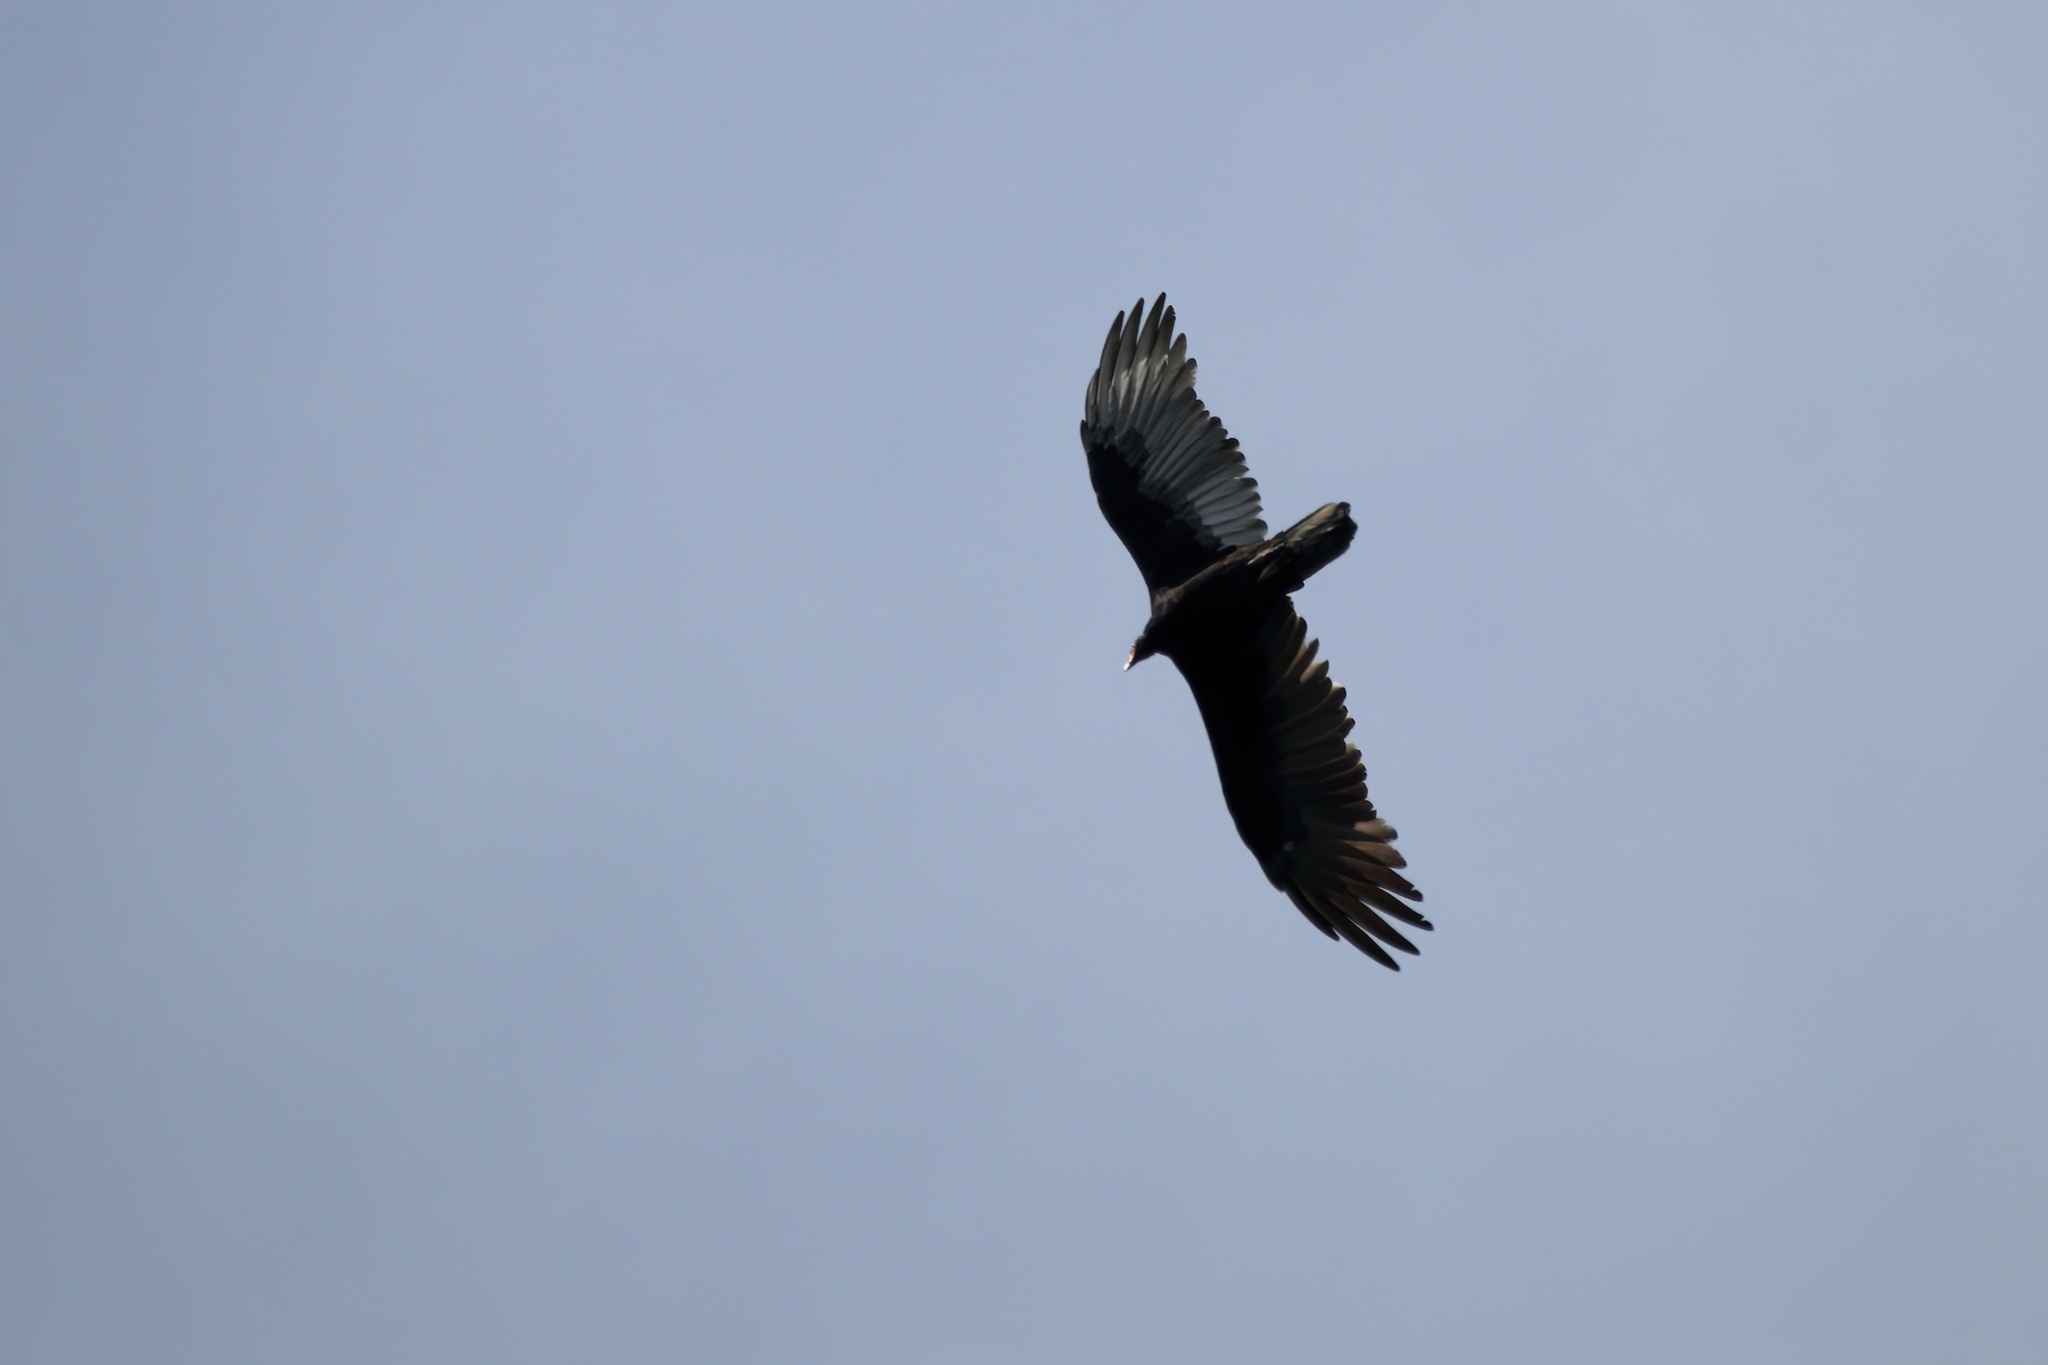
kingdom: Animalia
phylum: Chordata
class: Aves
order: Accipitriformes
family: Cathartidae
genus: Cathartes
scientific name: Cathartes aura
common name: Turkey vulture
